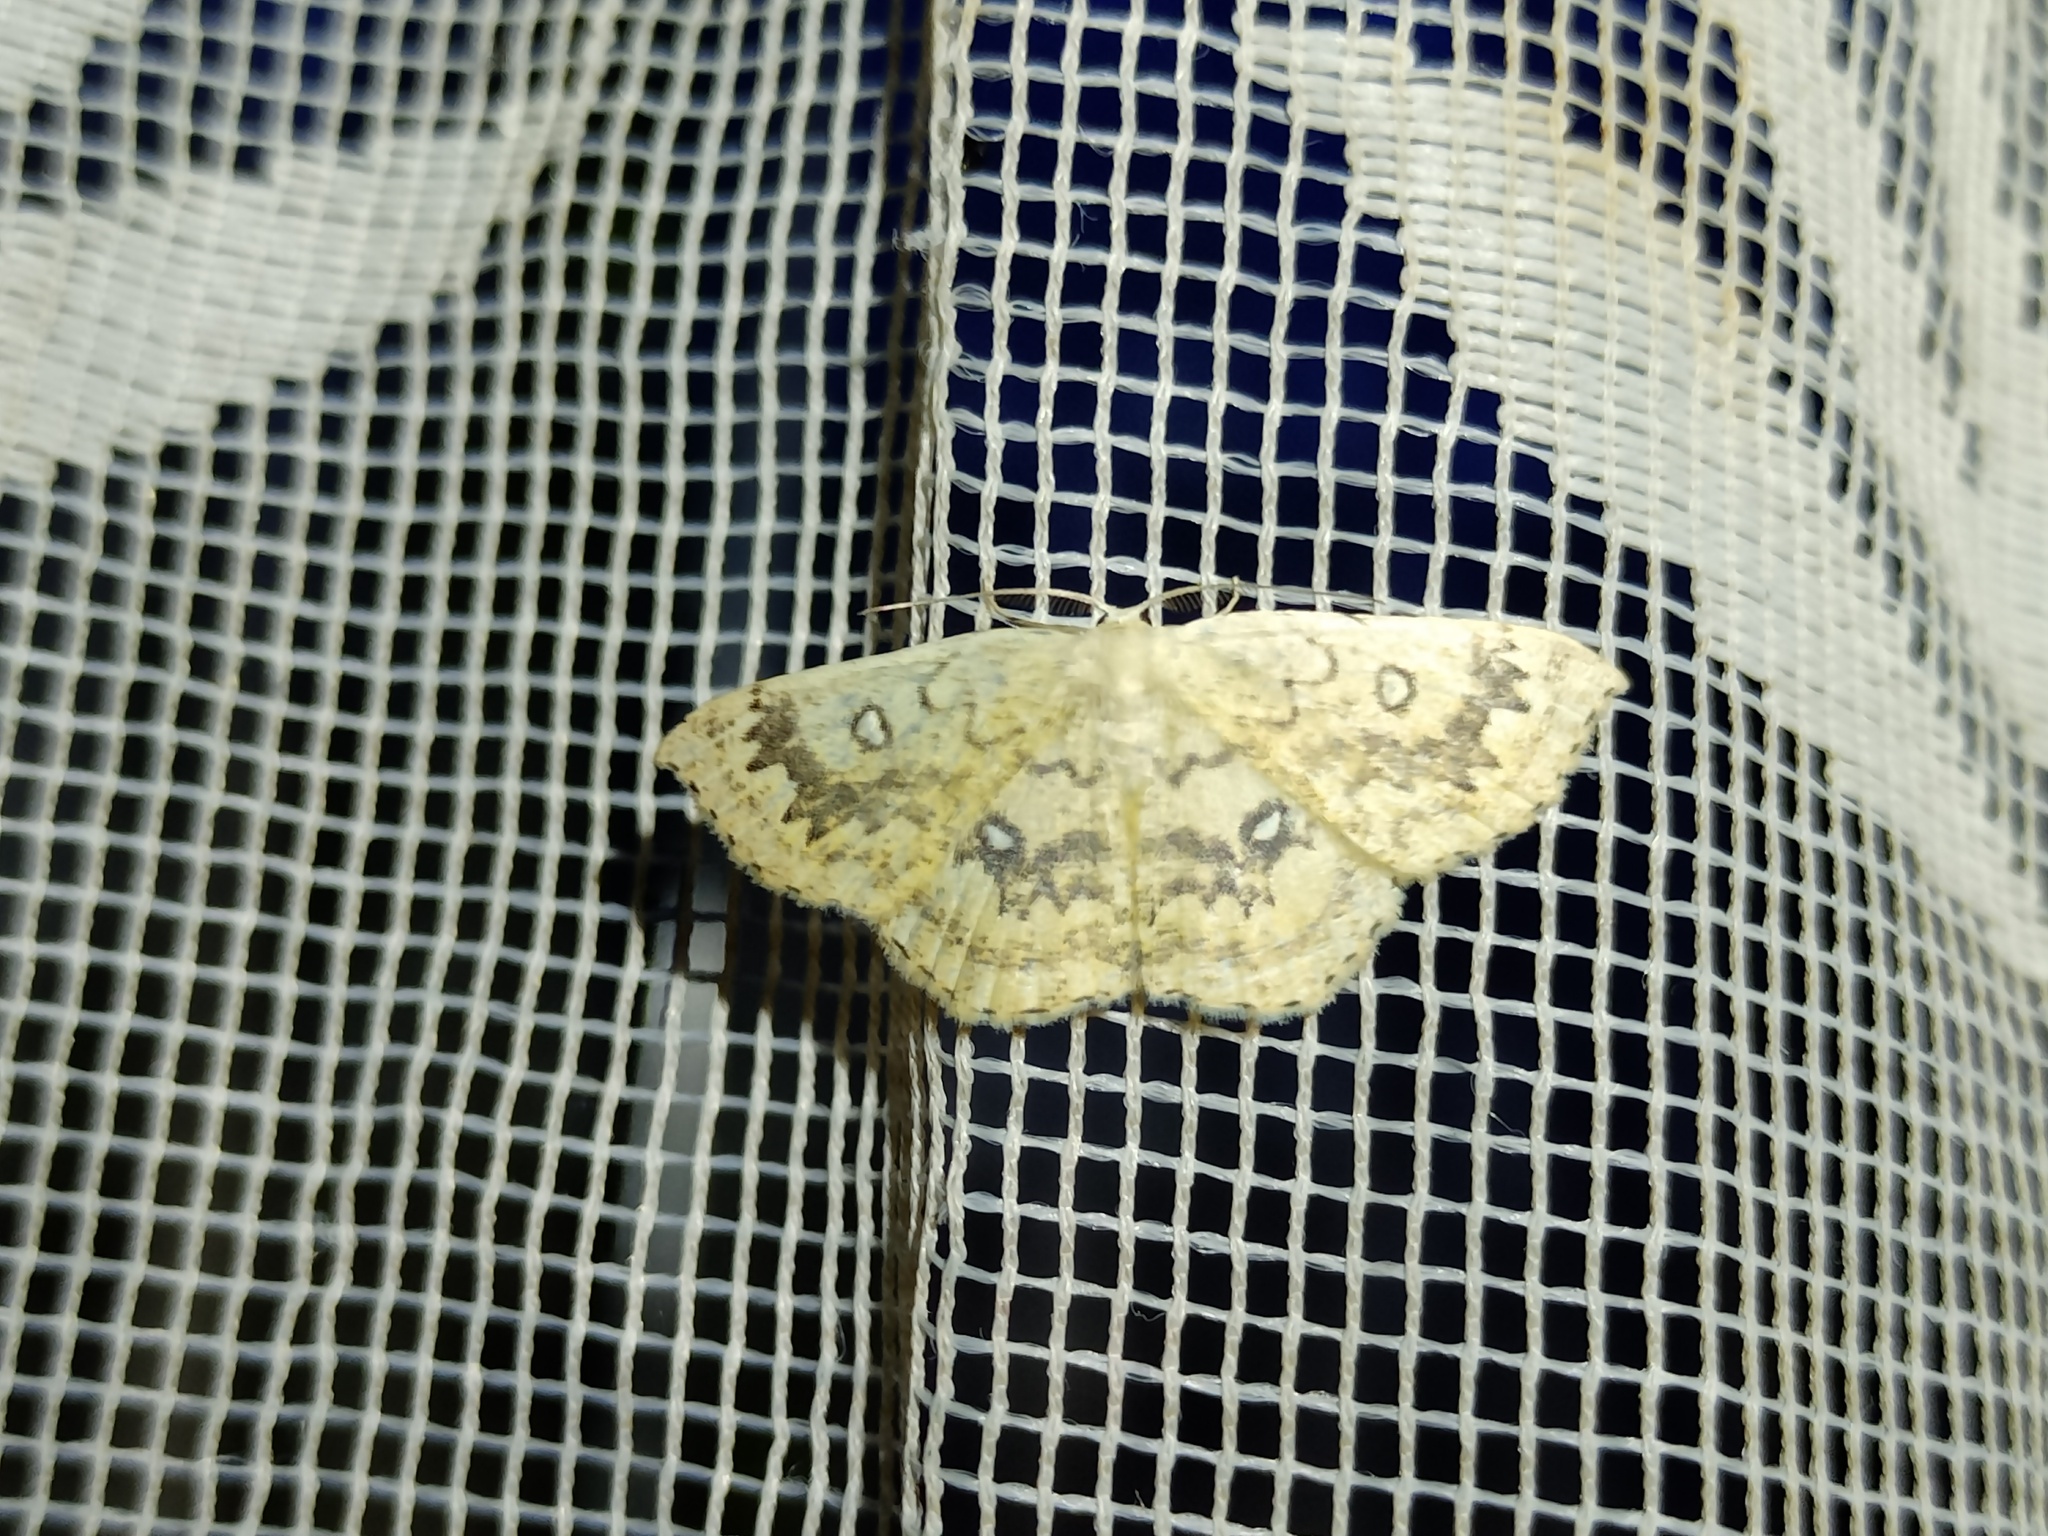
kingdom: Animalia
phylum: Arthropoda
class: Insecta
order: Lepidoptera
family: Geometridae
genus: Cyclophora
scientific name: Cyclophora annularia
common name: Mocha
